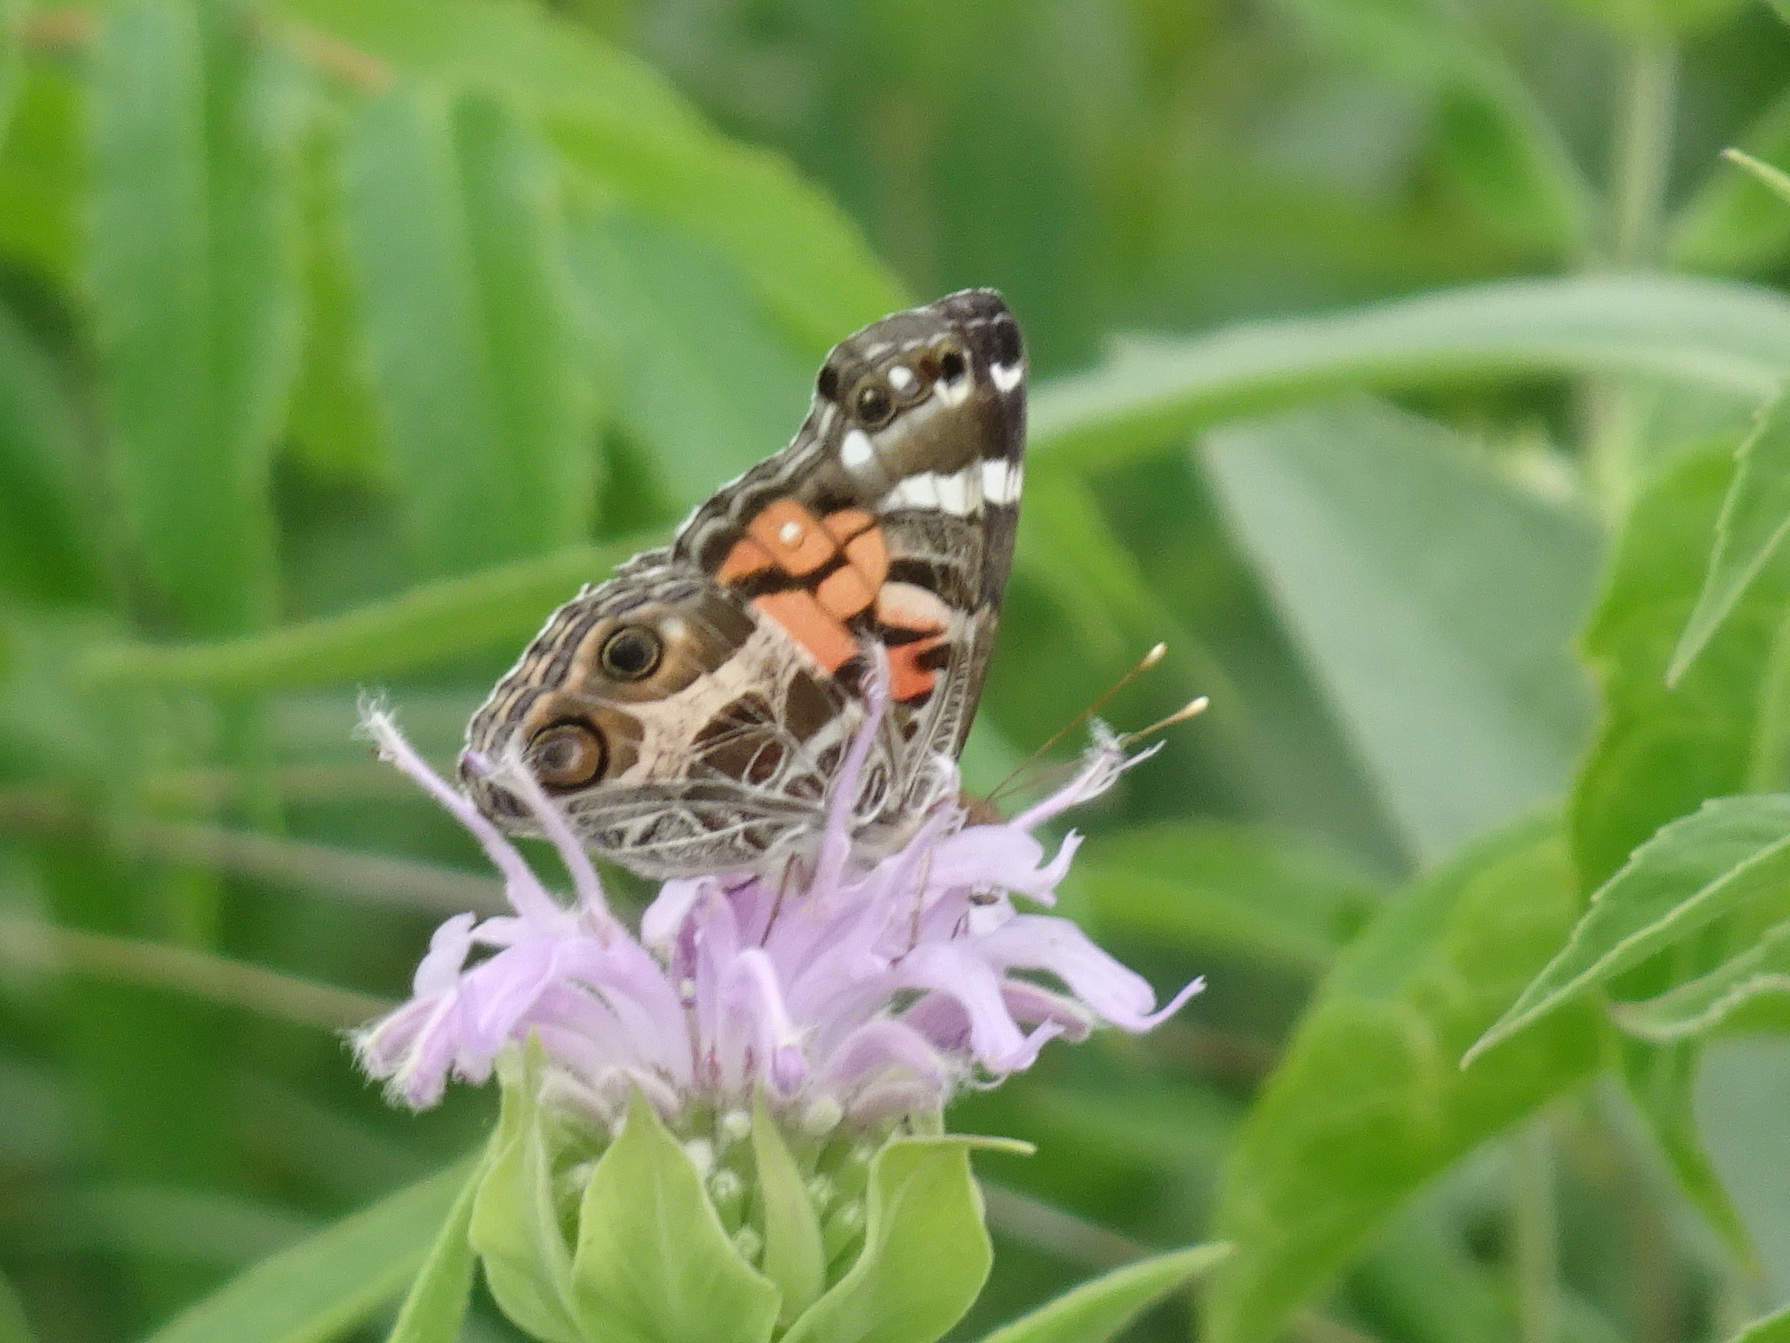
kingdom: Animalia
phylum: Arthropoda
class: Insecta
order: Lepidoptera
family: Nymphalidae
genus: Vanessa
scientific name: Vanessa virginiensis
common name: American lady
